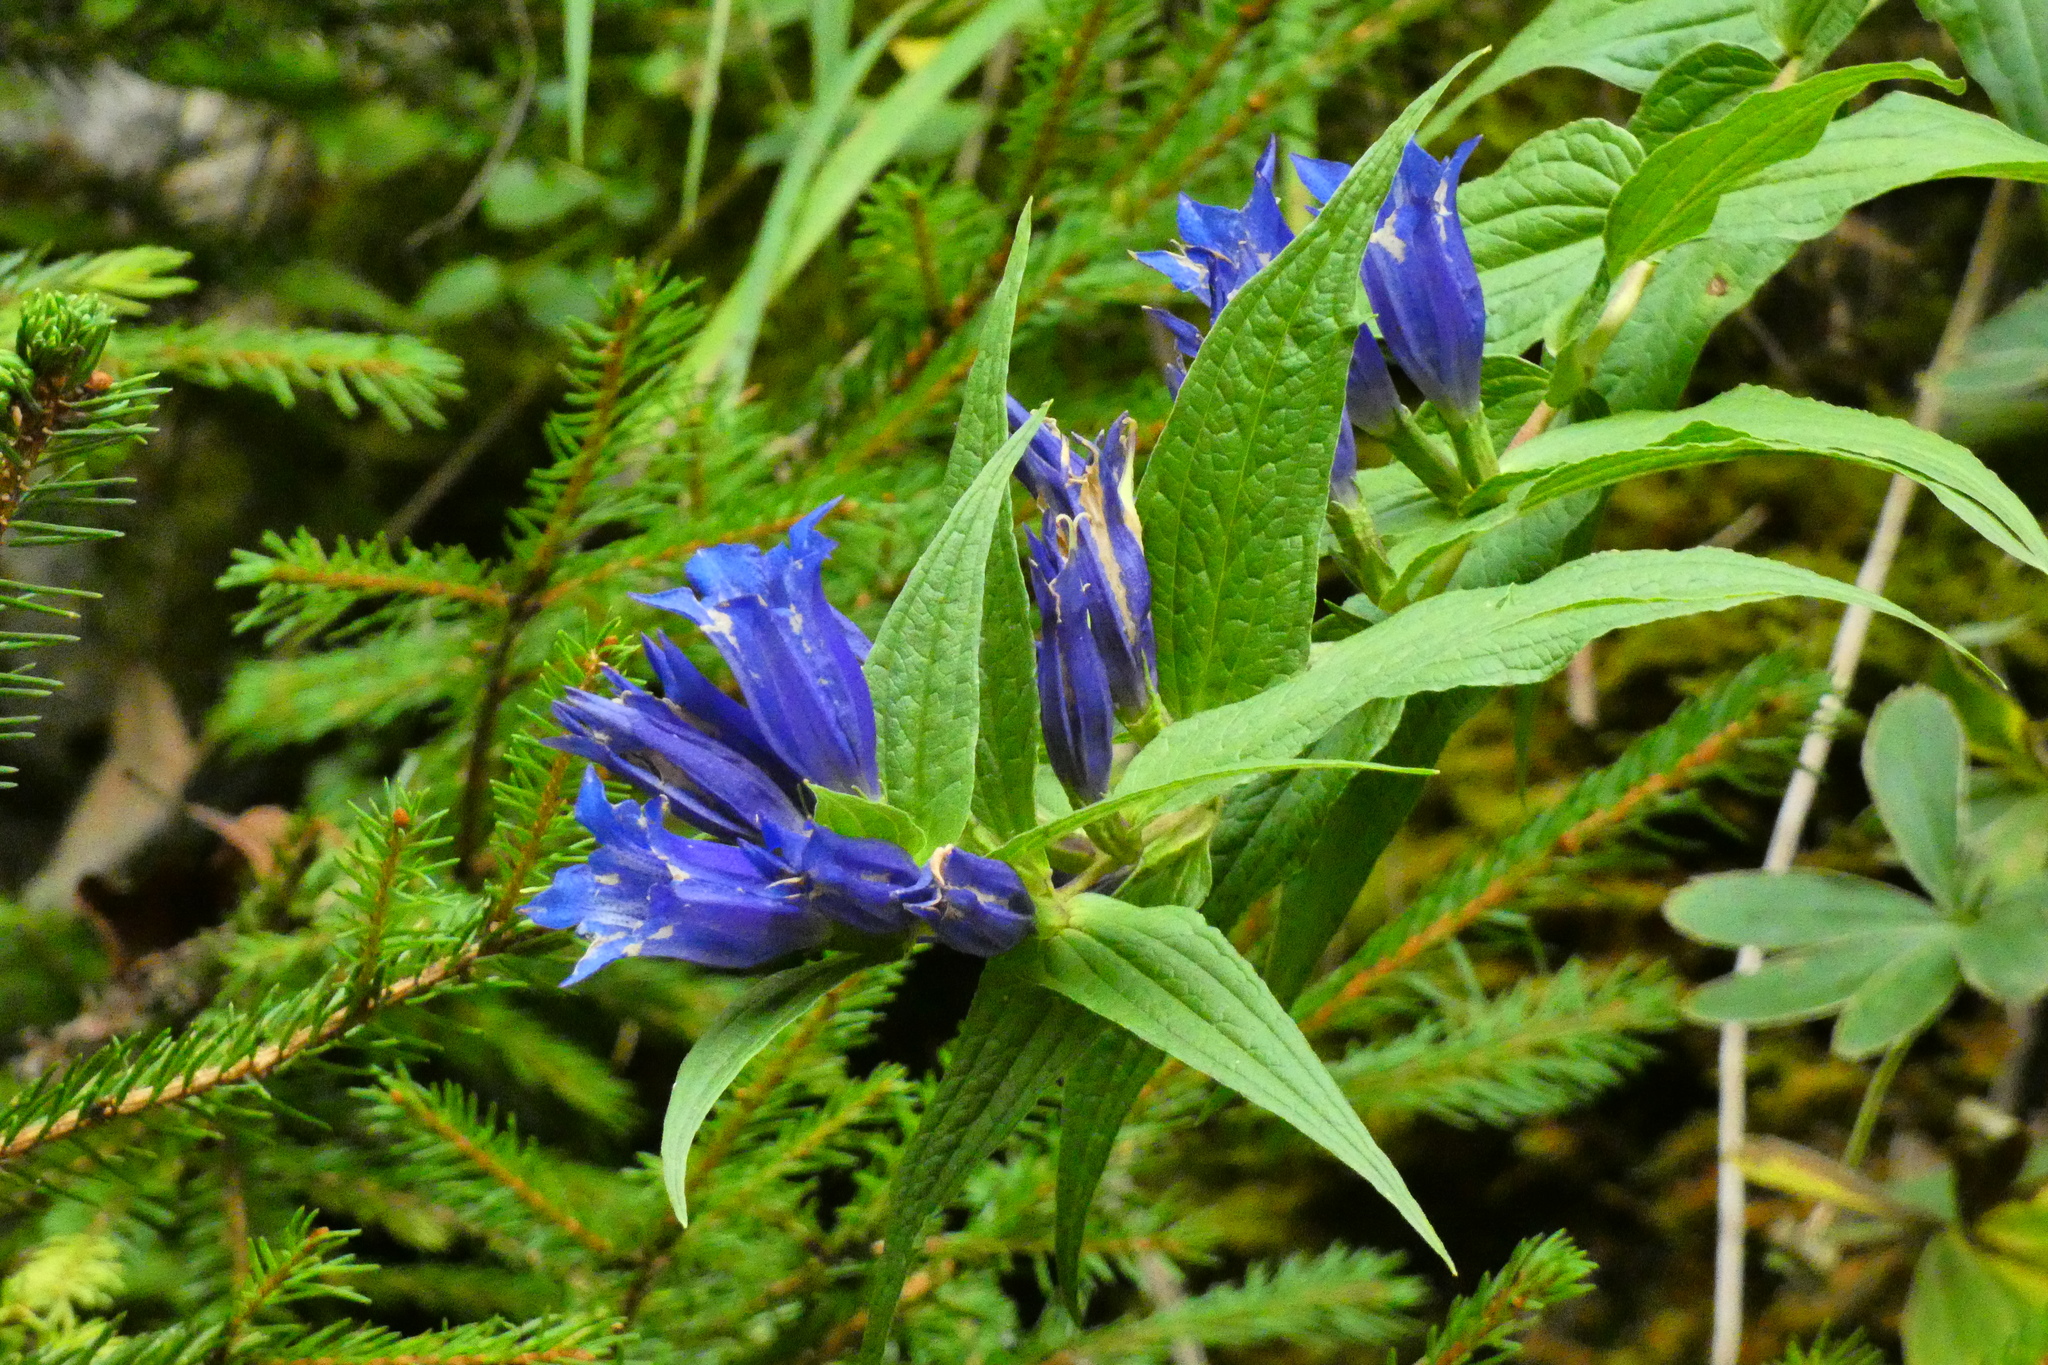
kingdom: Plantae
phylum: Tracheophyta
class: Magnoliopsida
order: Gentianales
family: Gentianaceae
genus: Gentiana
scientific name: Gentiana asclepiadea
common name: Willow gentian
